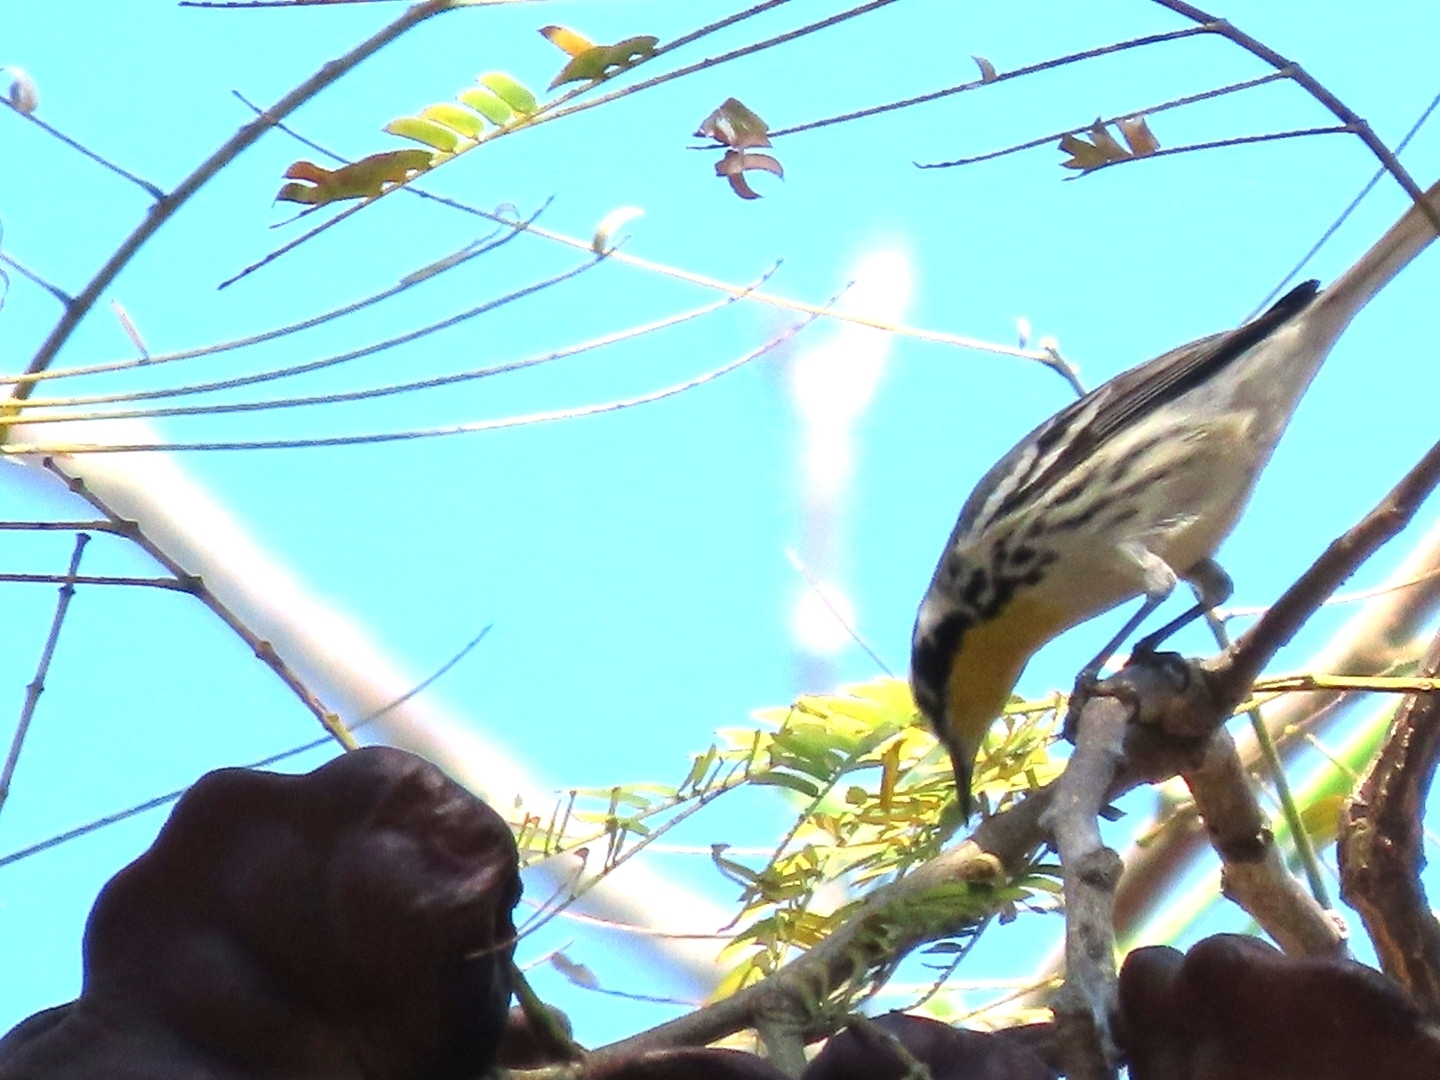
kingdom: Animalia
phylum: Chordata
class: Aves
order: Passeriformes
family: Parulidae
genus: Setophaga
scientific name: Setophaga dominica
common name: Yellow-throated warbler
